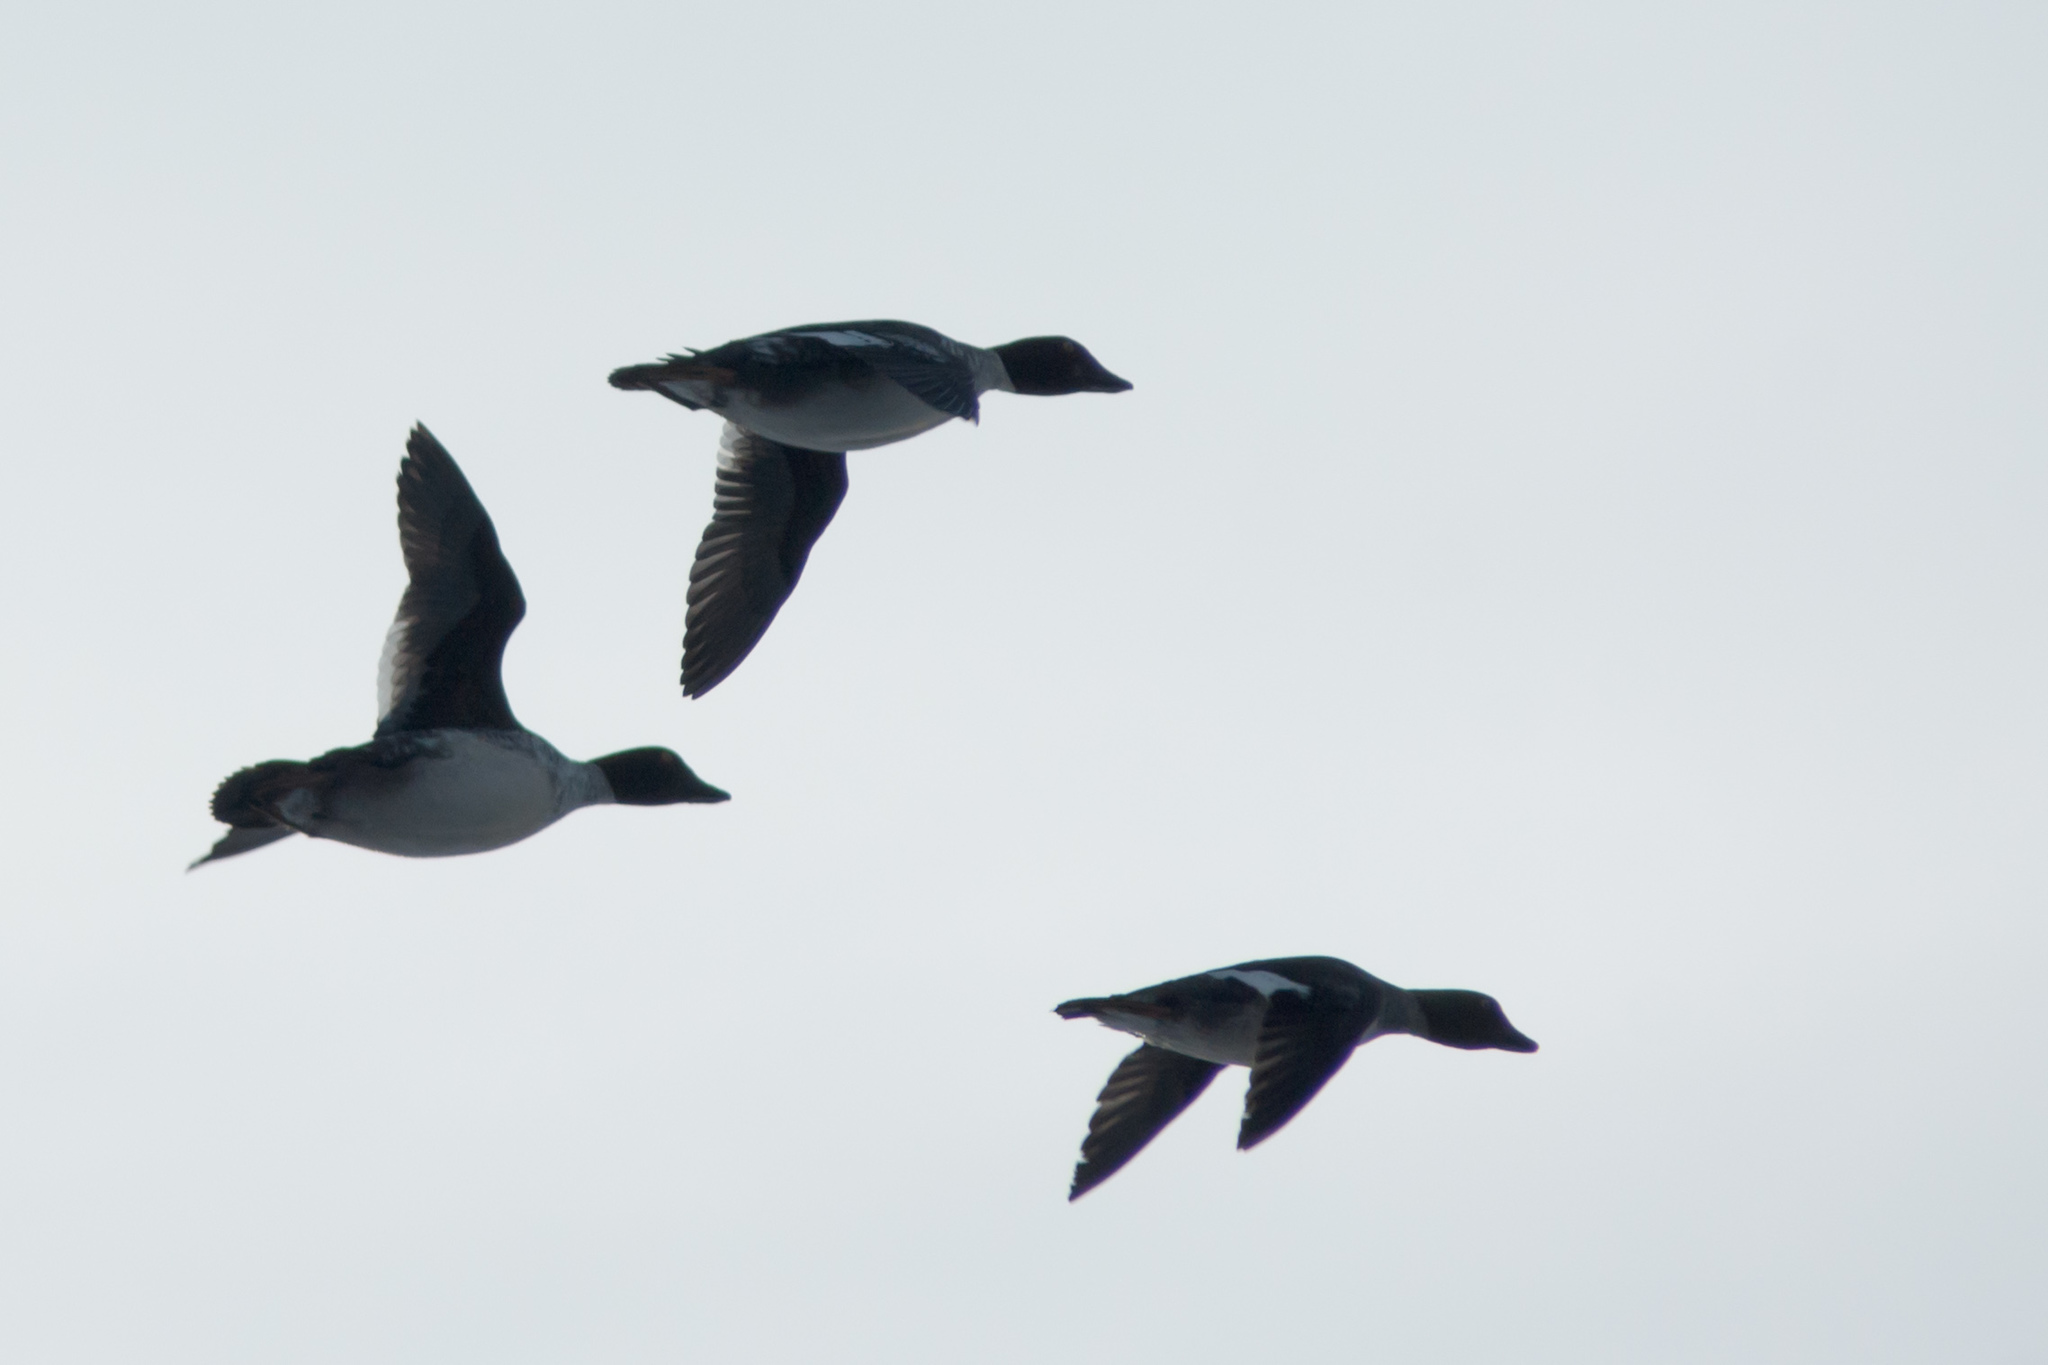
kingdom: Animalia
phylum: Chordata
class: Aves
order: Anseriformes
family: Anatidae
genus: Bucephala
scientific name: Bucephala clangula
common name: Common goldeneye
